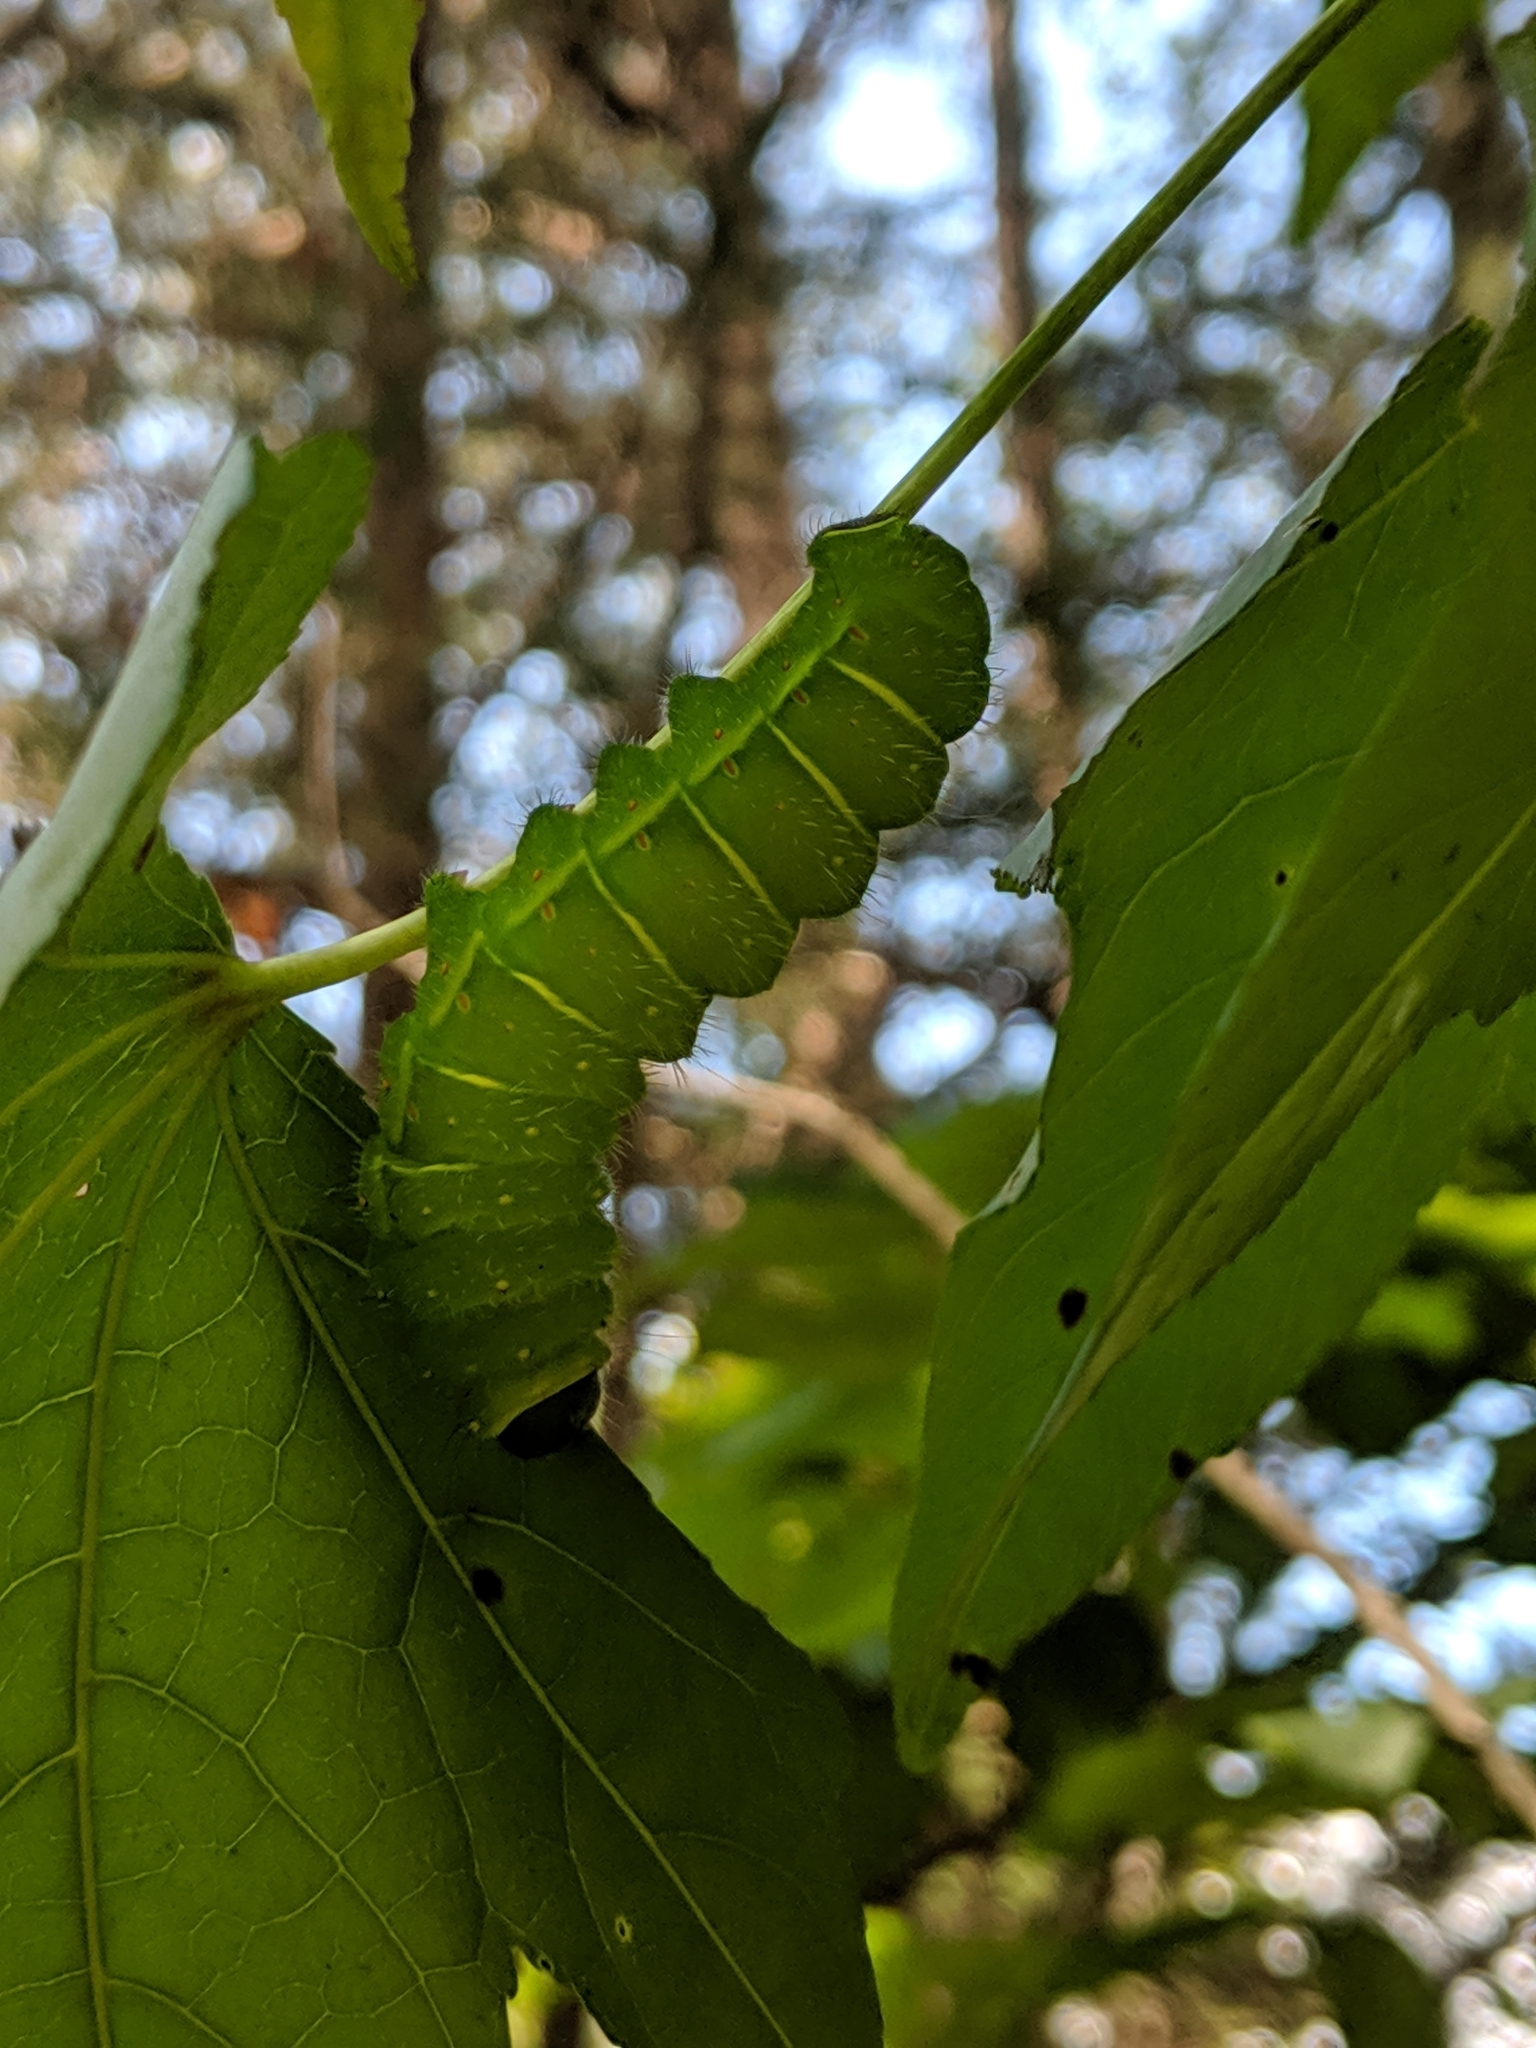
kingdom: Animalia
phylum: Arthropoda
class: Insecta
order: Lepidoptera
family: Saturniidae
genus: Actias
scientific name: Actias luna
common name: Luna moth
